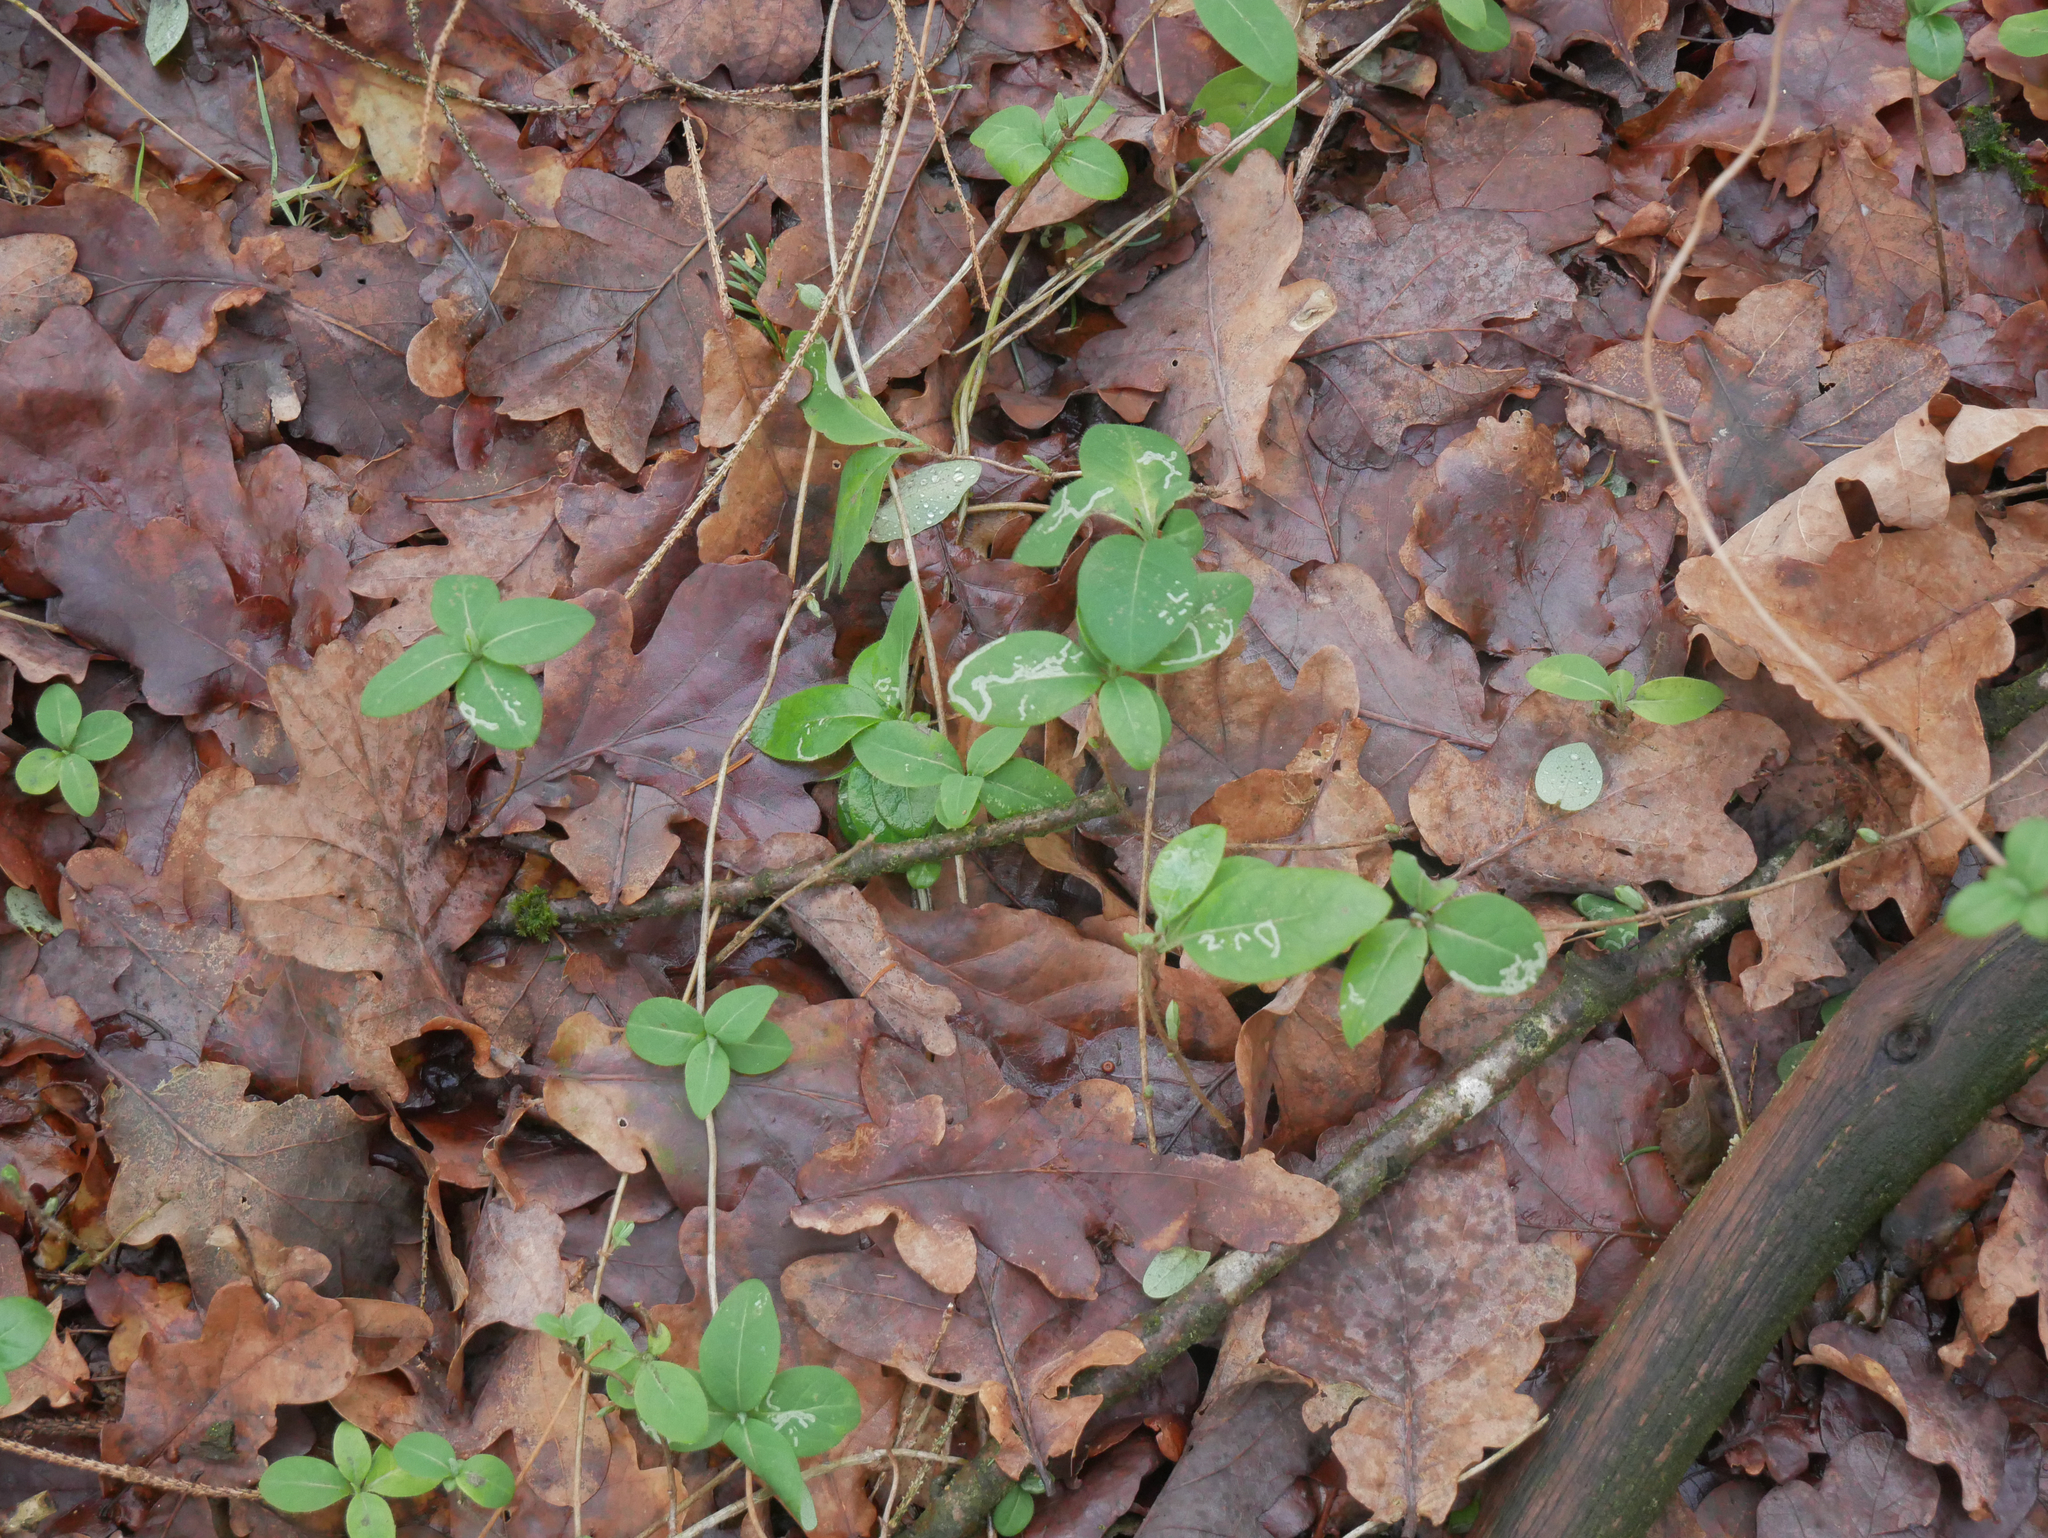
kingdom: Plantae
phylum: Tracheophyta
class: Magnoliopsida
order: Dipsacales
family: Caprifoliaceae
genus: Lonicera
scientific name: Lonicera periclymenum
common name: European honeysuckle
